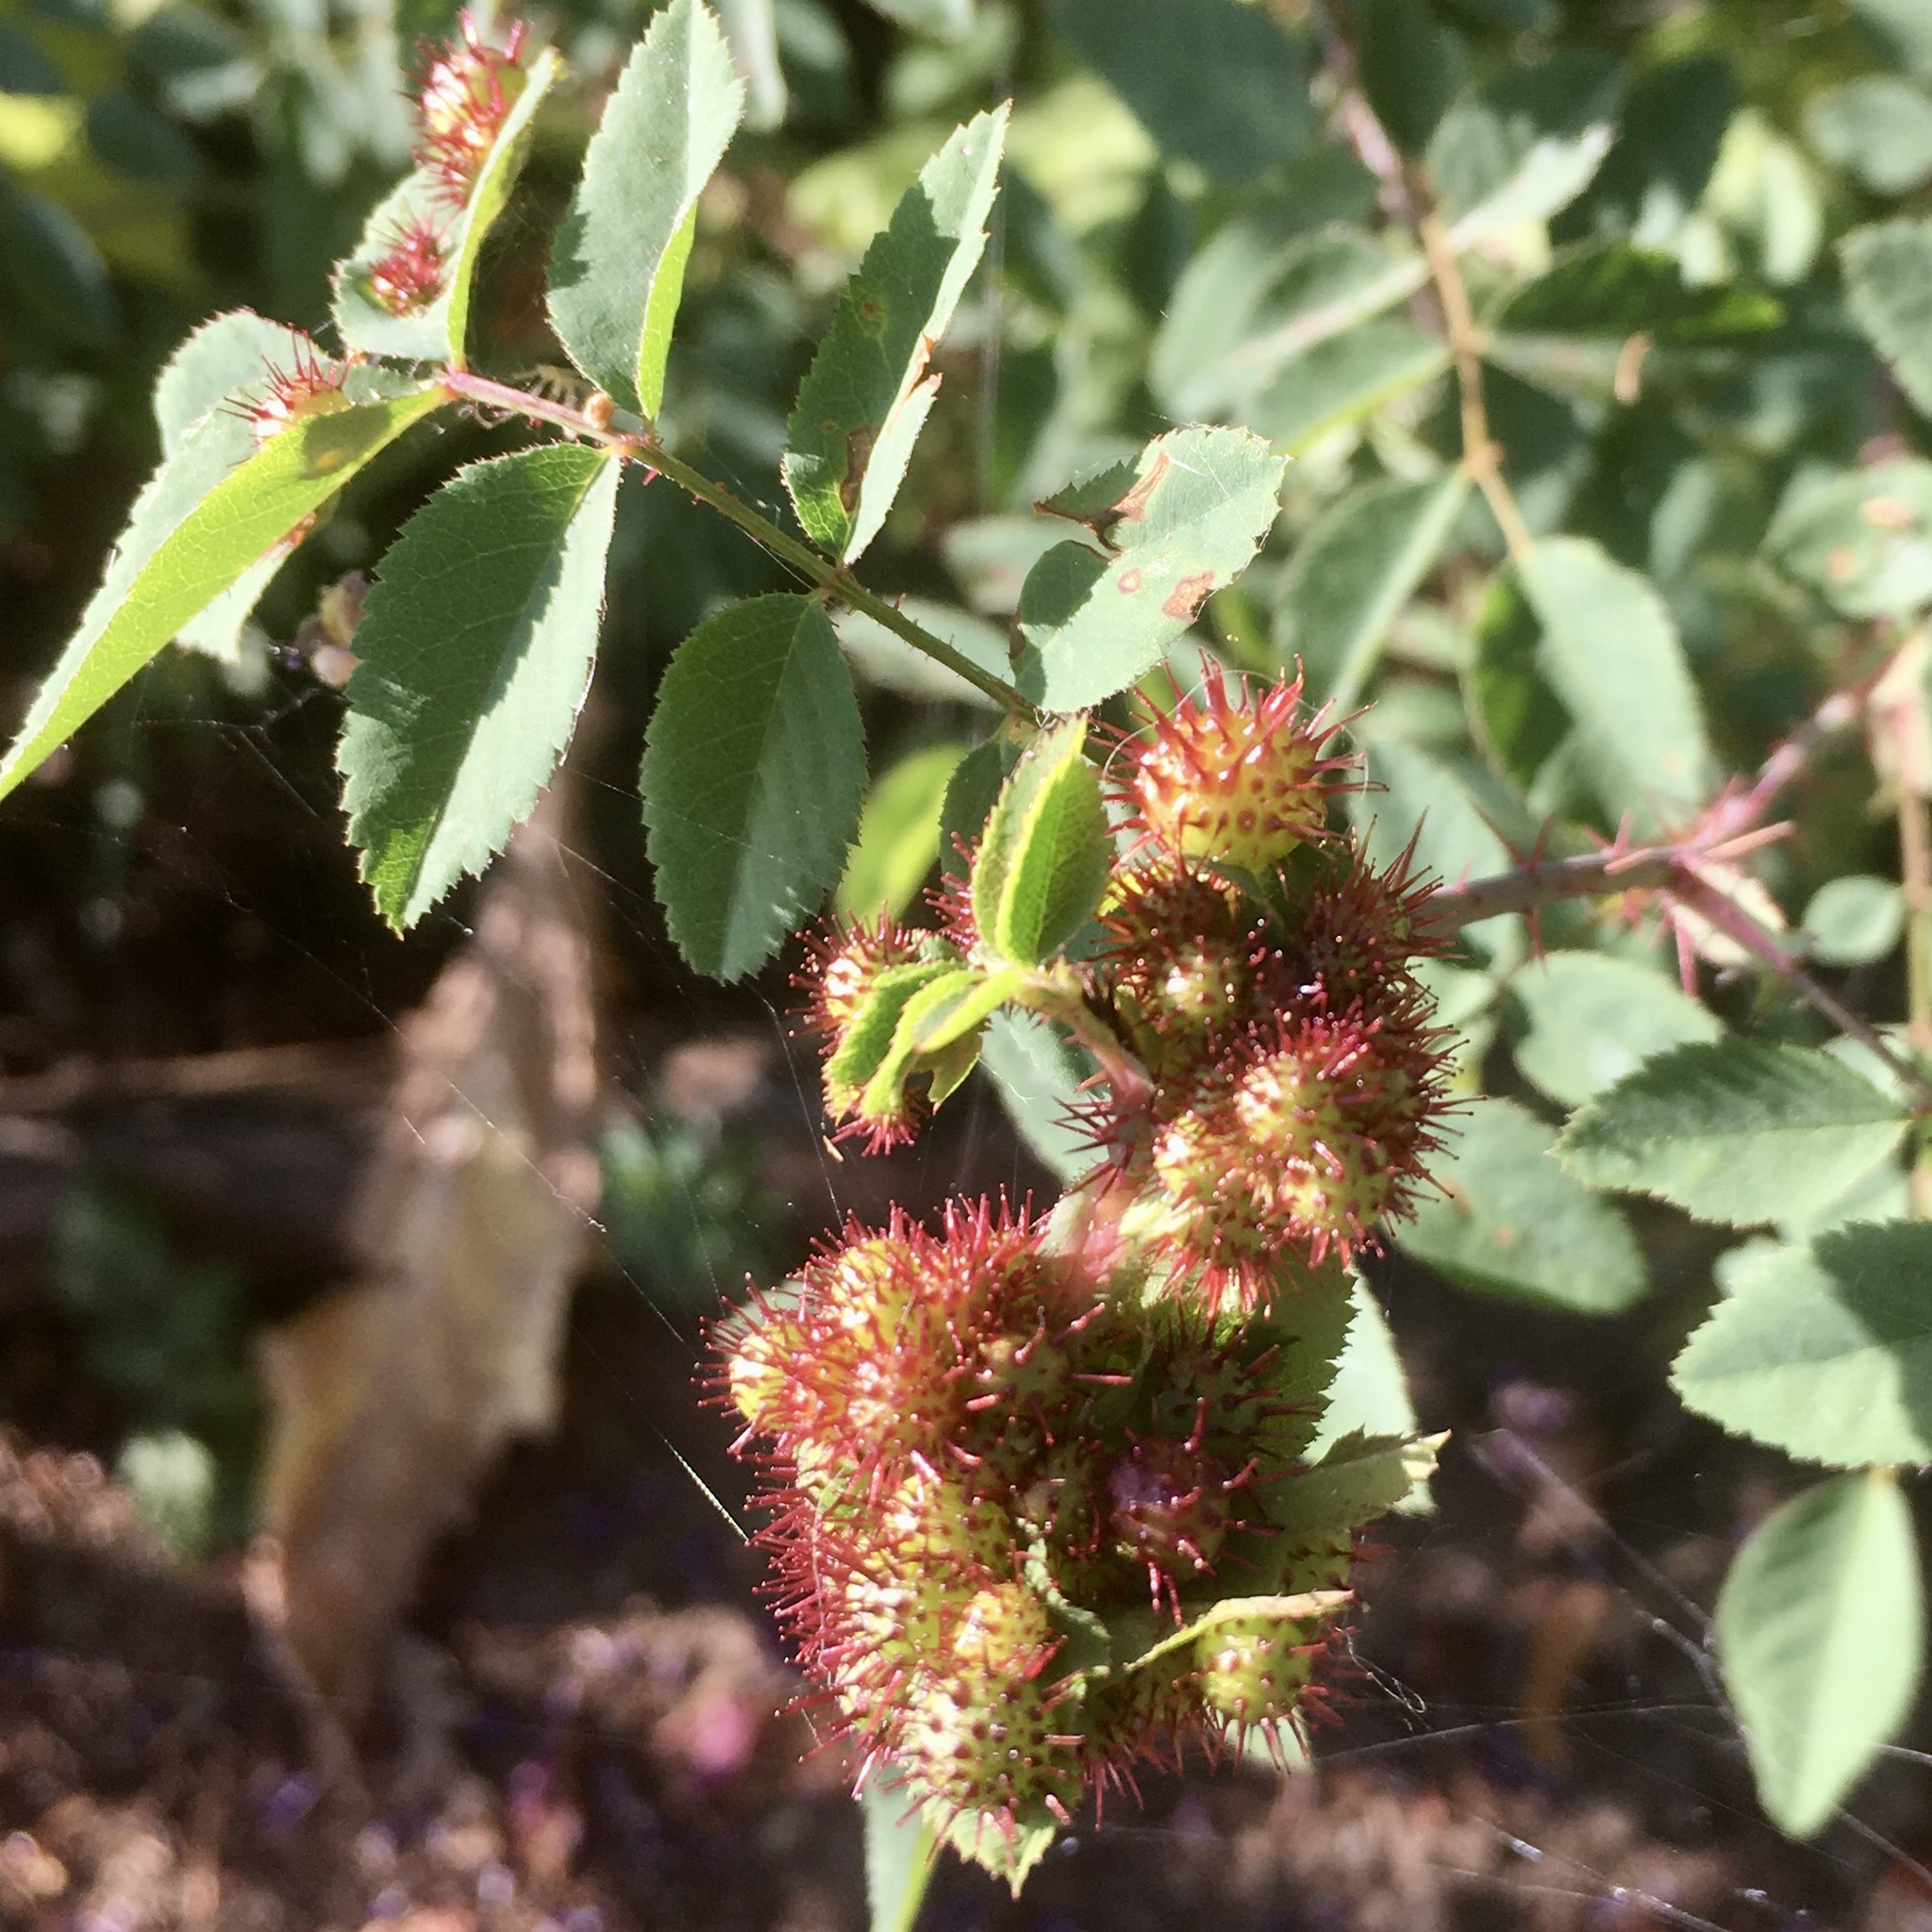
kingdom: Animalia
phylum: Arthropoda
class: Insecta
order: Hymenoptera
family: Cynipidae
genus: Diplolepis
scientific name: Diplolepis polita
